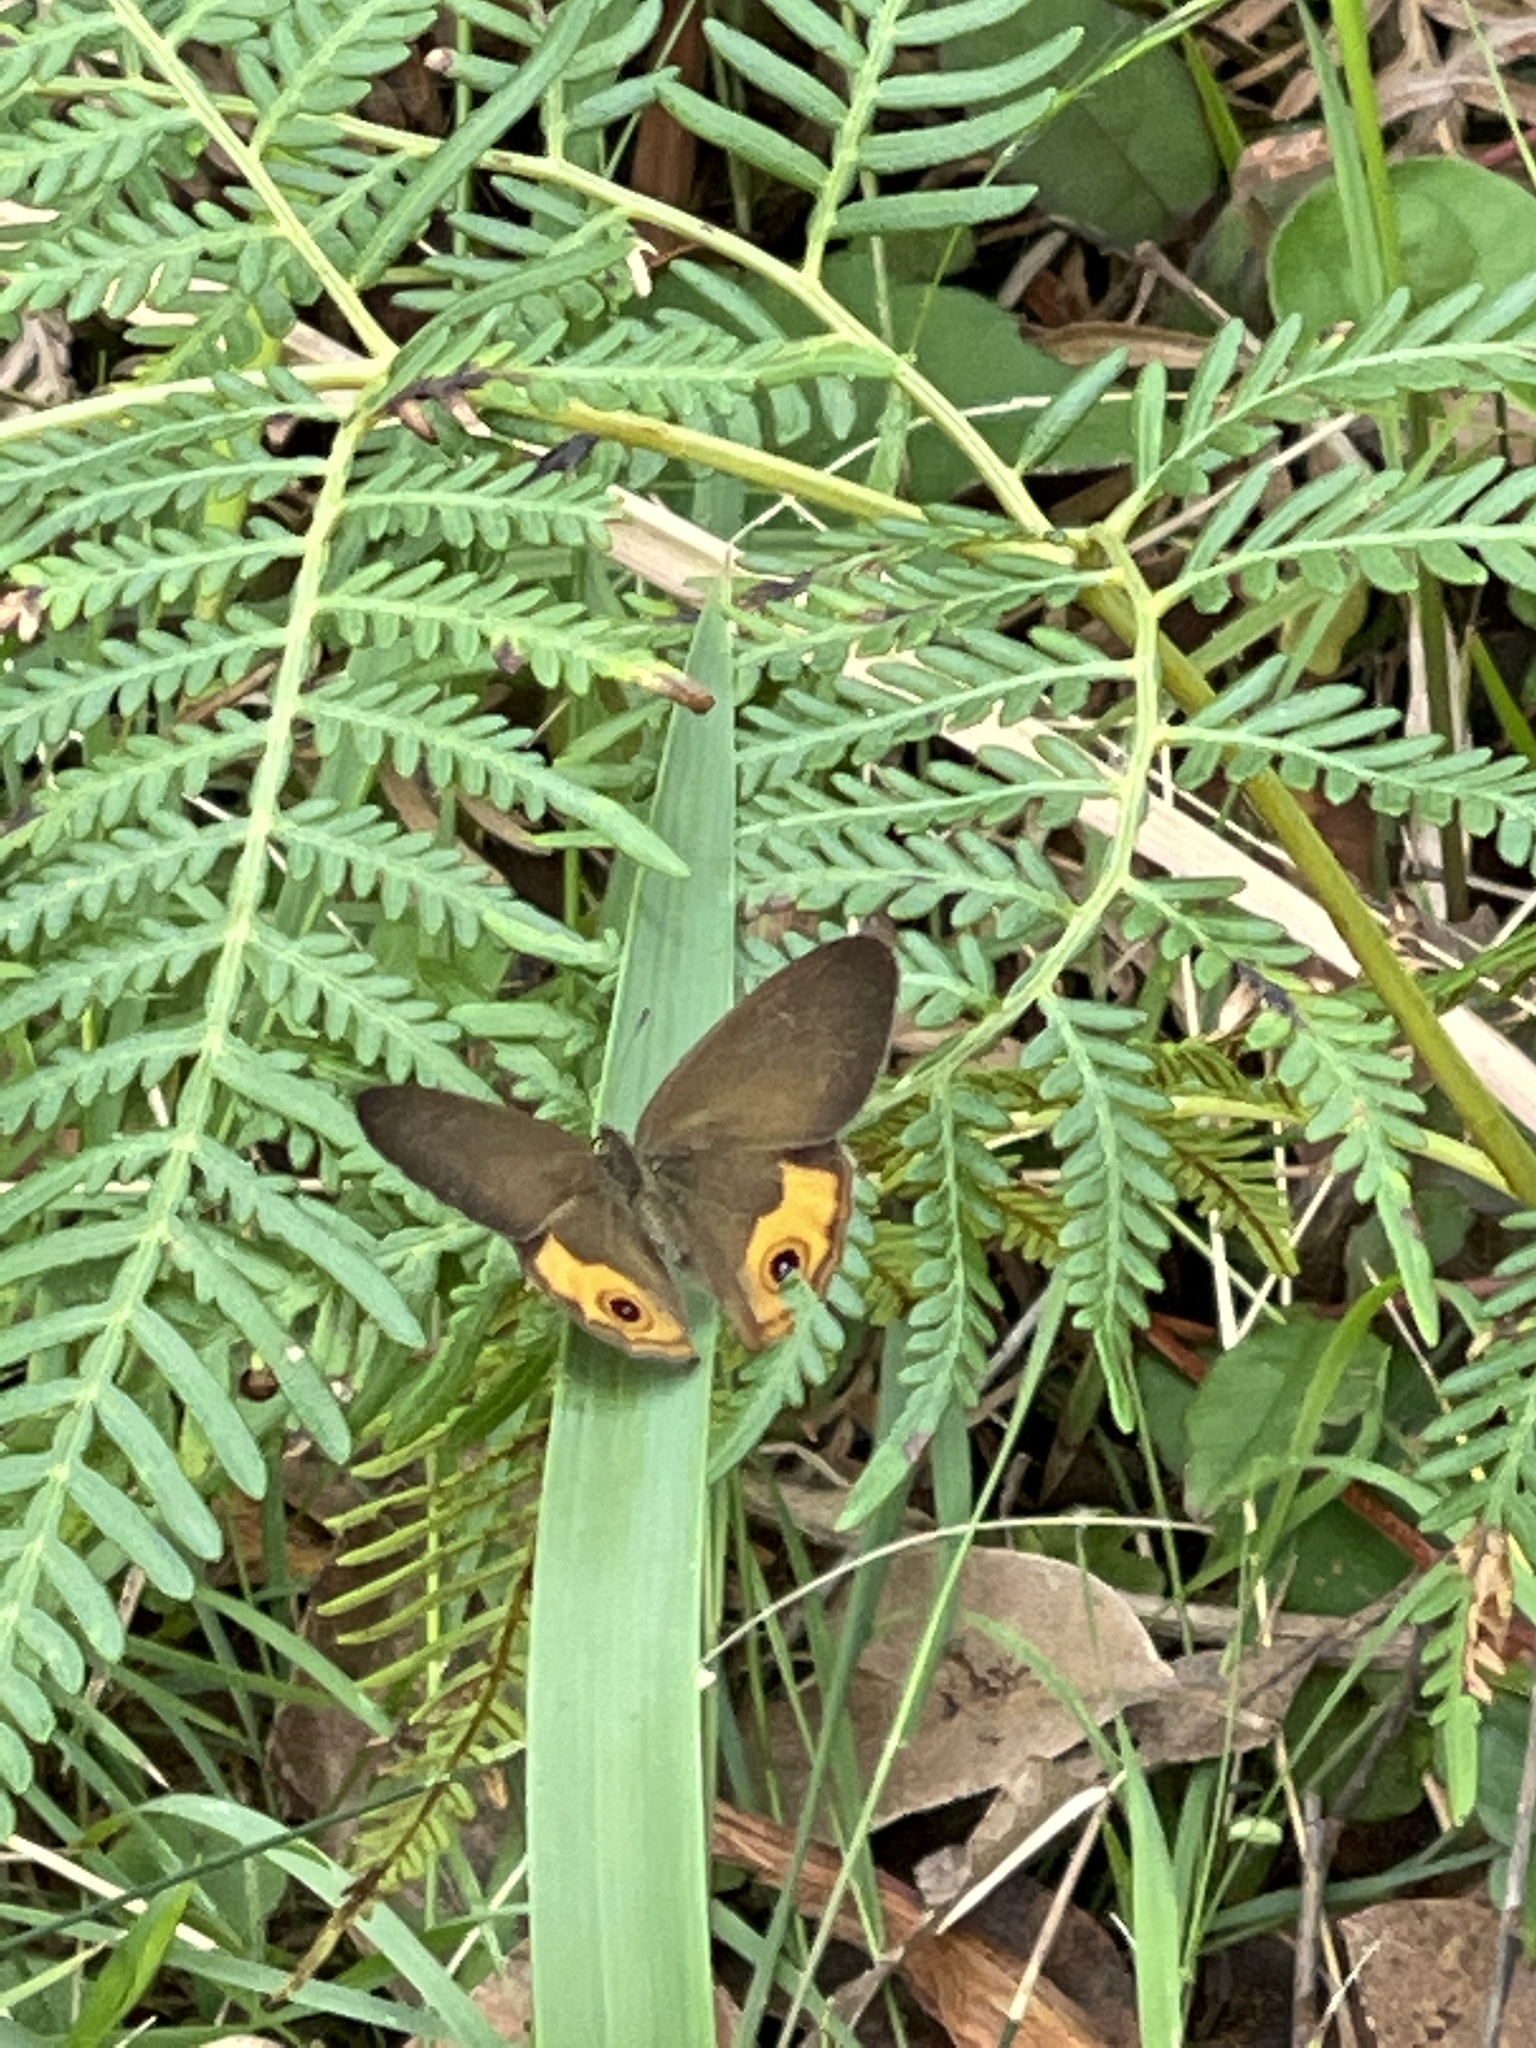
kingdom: Animalia
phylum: Arthropoda
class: Insecta
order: Lepidoptera
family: Nymphalidae
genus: Hypocysta
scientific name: Hypocysta metirius
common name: Brown ringlet
